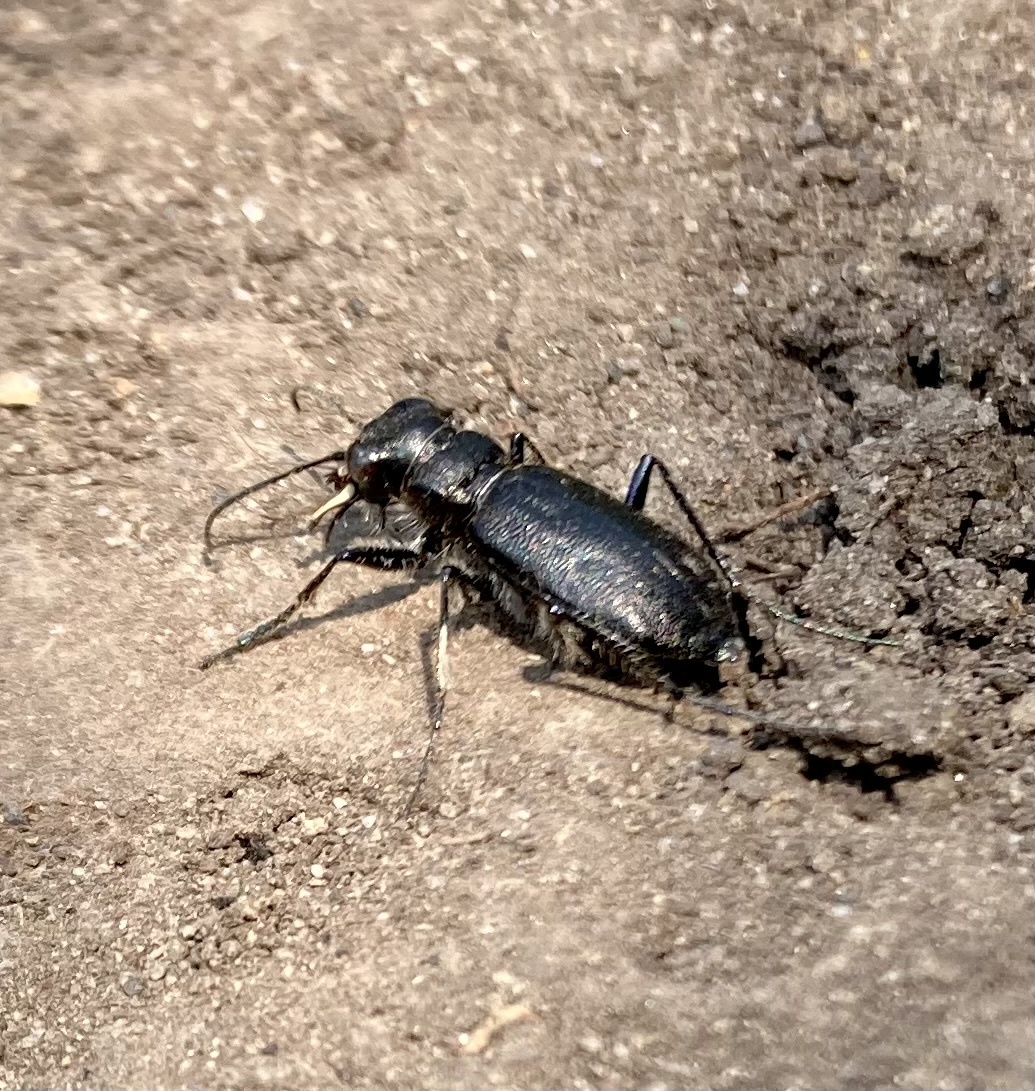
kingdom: Animalia
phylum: Arthropoda
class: Insecta
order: Coleoptera
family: Carabidae
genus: Cicindela
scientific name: Cicindela nebraskana
